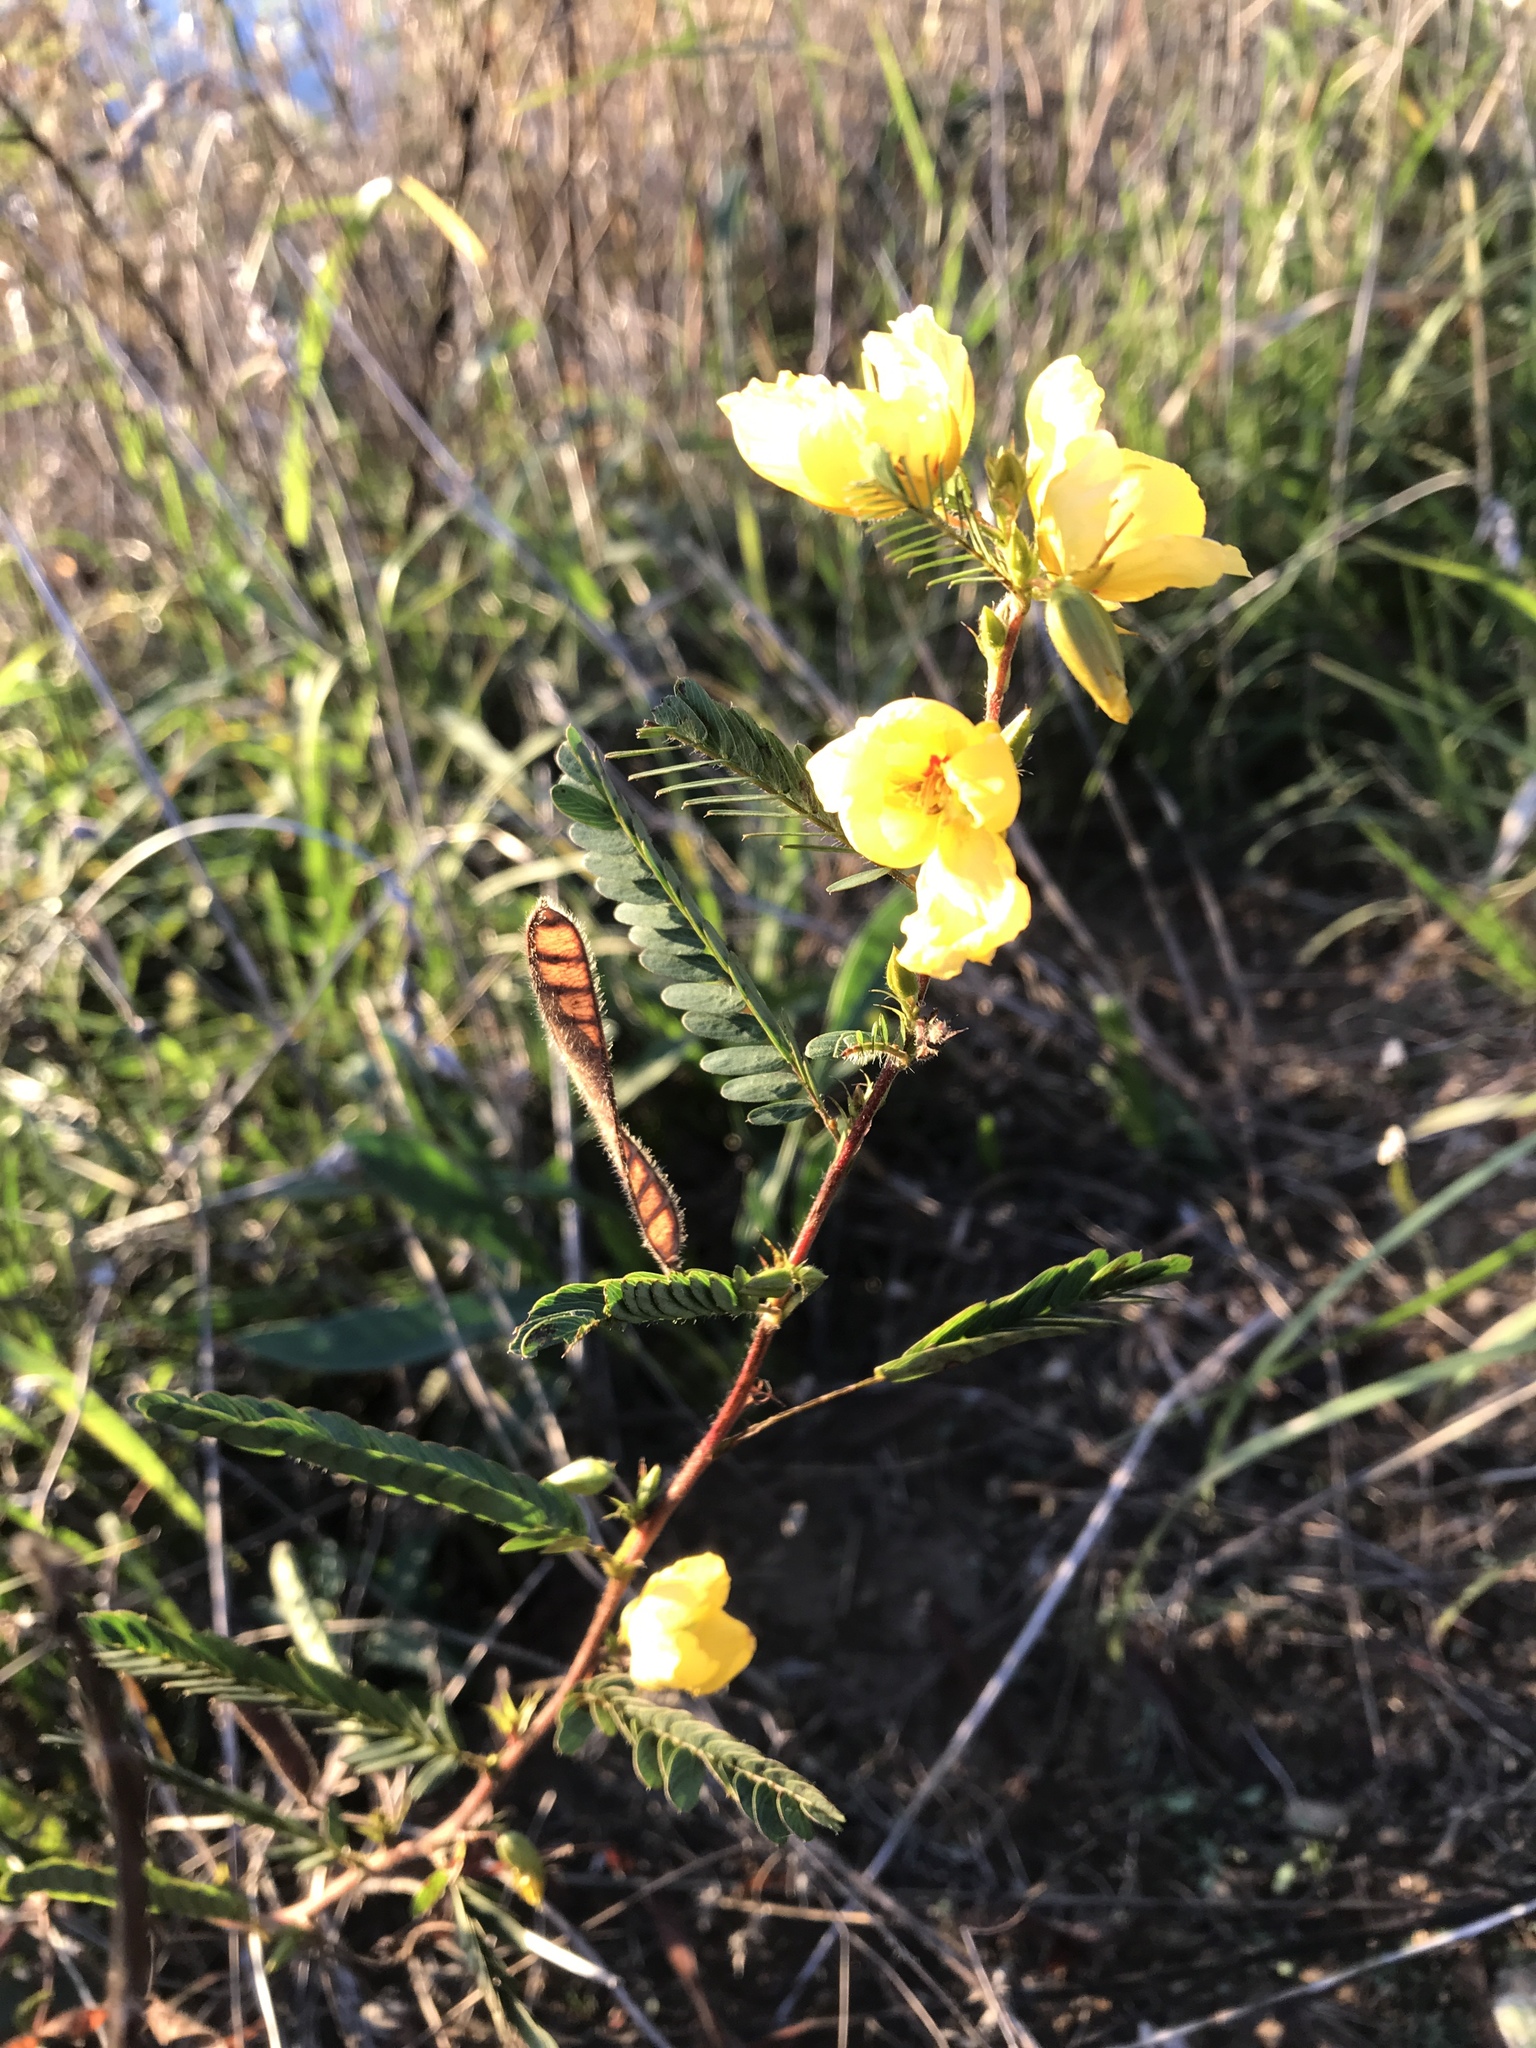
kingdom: Plantae
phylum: Tracheophyta
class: Magnoliopsida
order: Fabales
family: Fabaceae
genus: Chamaecrista
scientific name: Chamaecrista fasciculata
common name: Golden cassia
